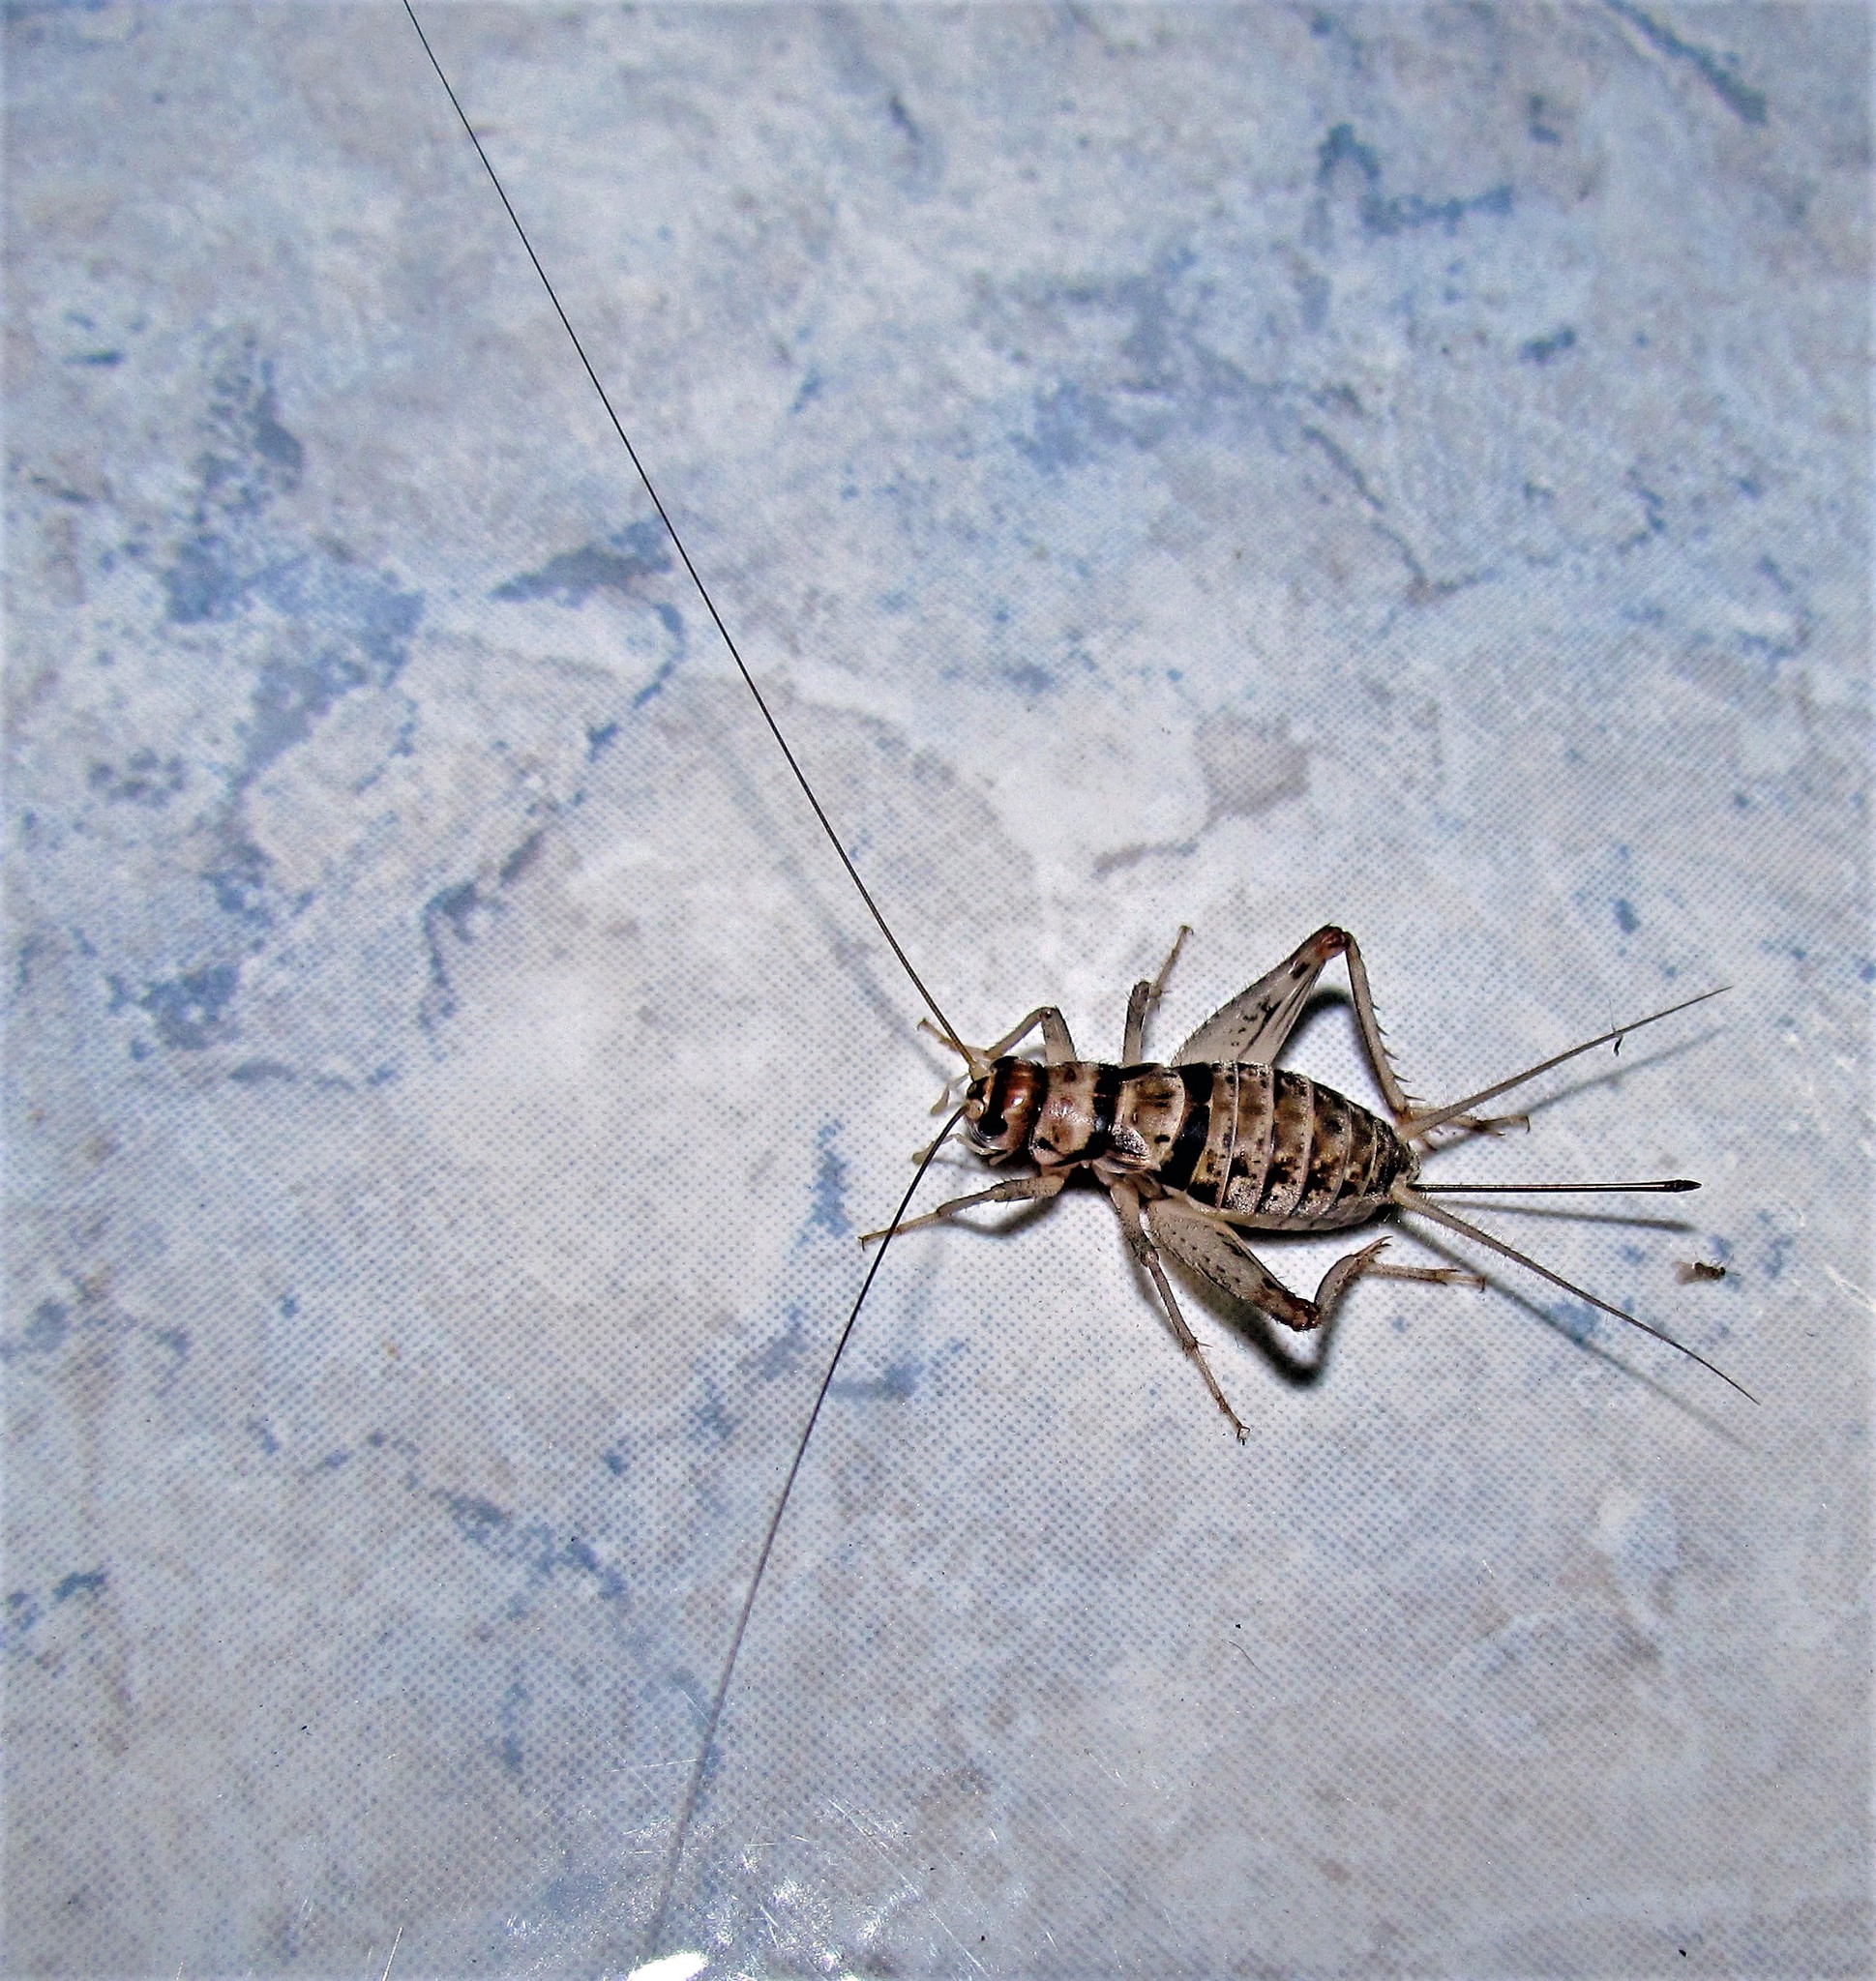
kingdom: Animalia
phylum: Arthropoda
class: Insecta
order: Orthoptera
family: Gryllidae
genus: Gryllodes
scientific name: Gryllodes sigillatus
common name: Tropical house cricket
